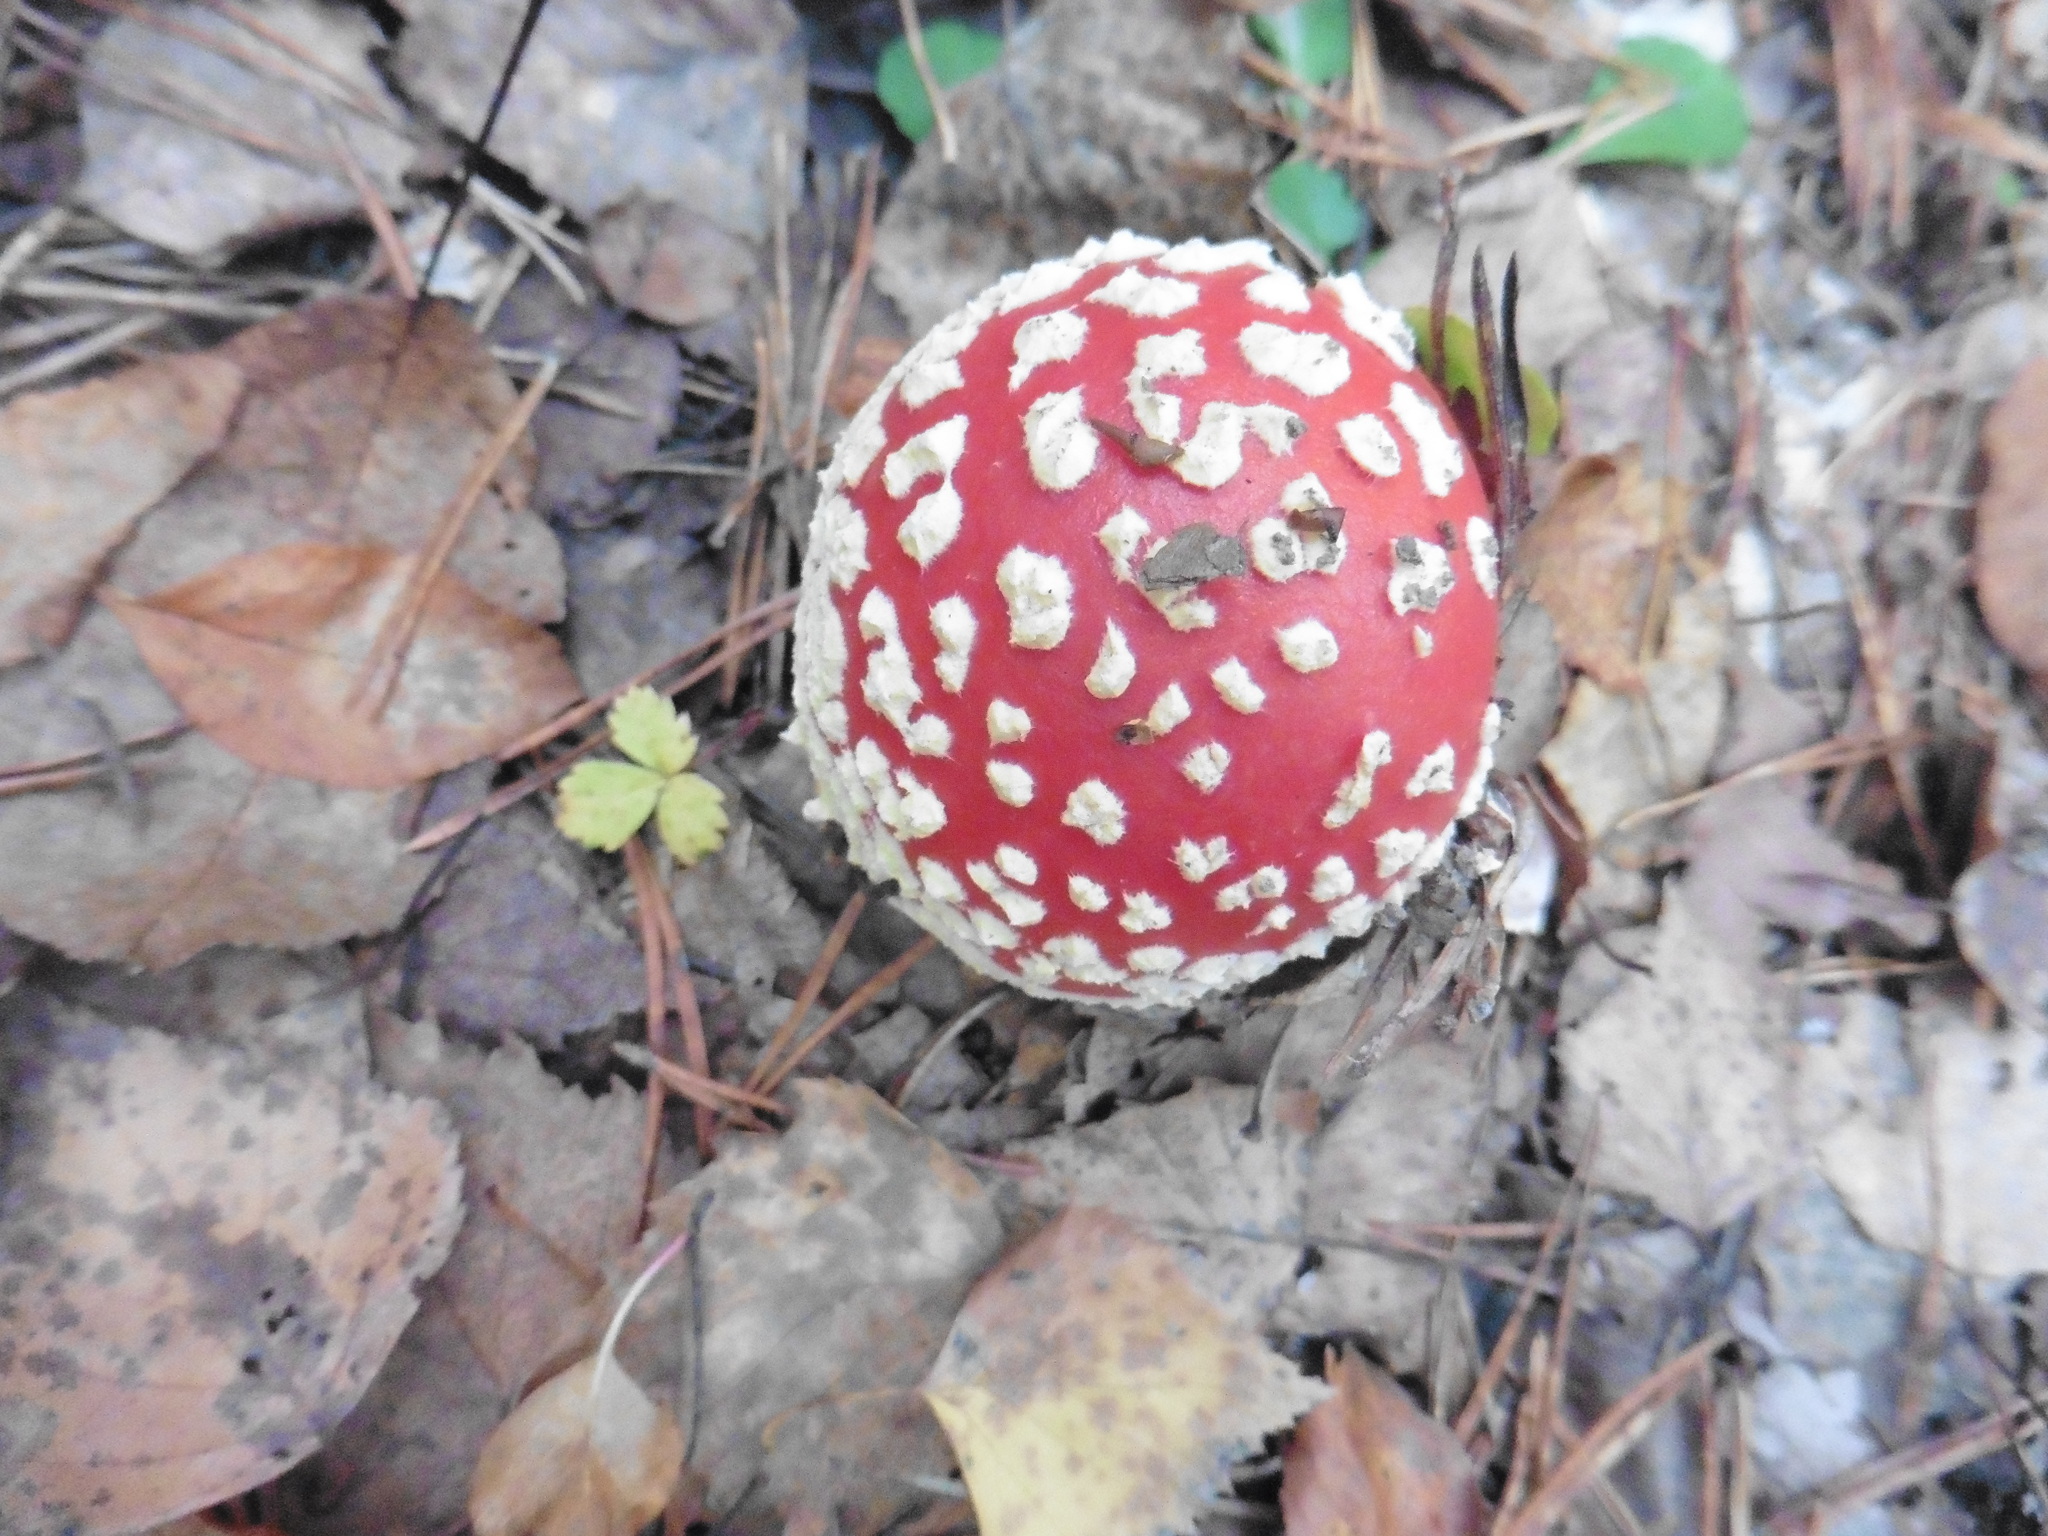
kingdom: Fungi
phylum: Basidiomycota
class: Agaricomycetes
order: Agaricales
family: Amanitaceae
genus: Amanita
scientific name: Amanita muscaria
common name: Fly agaric
